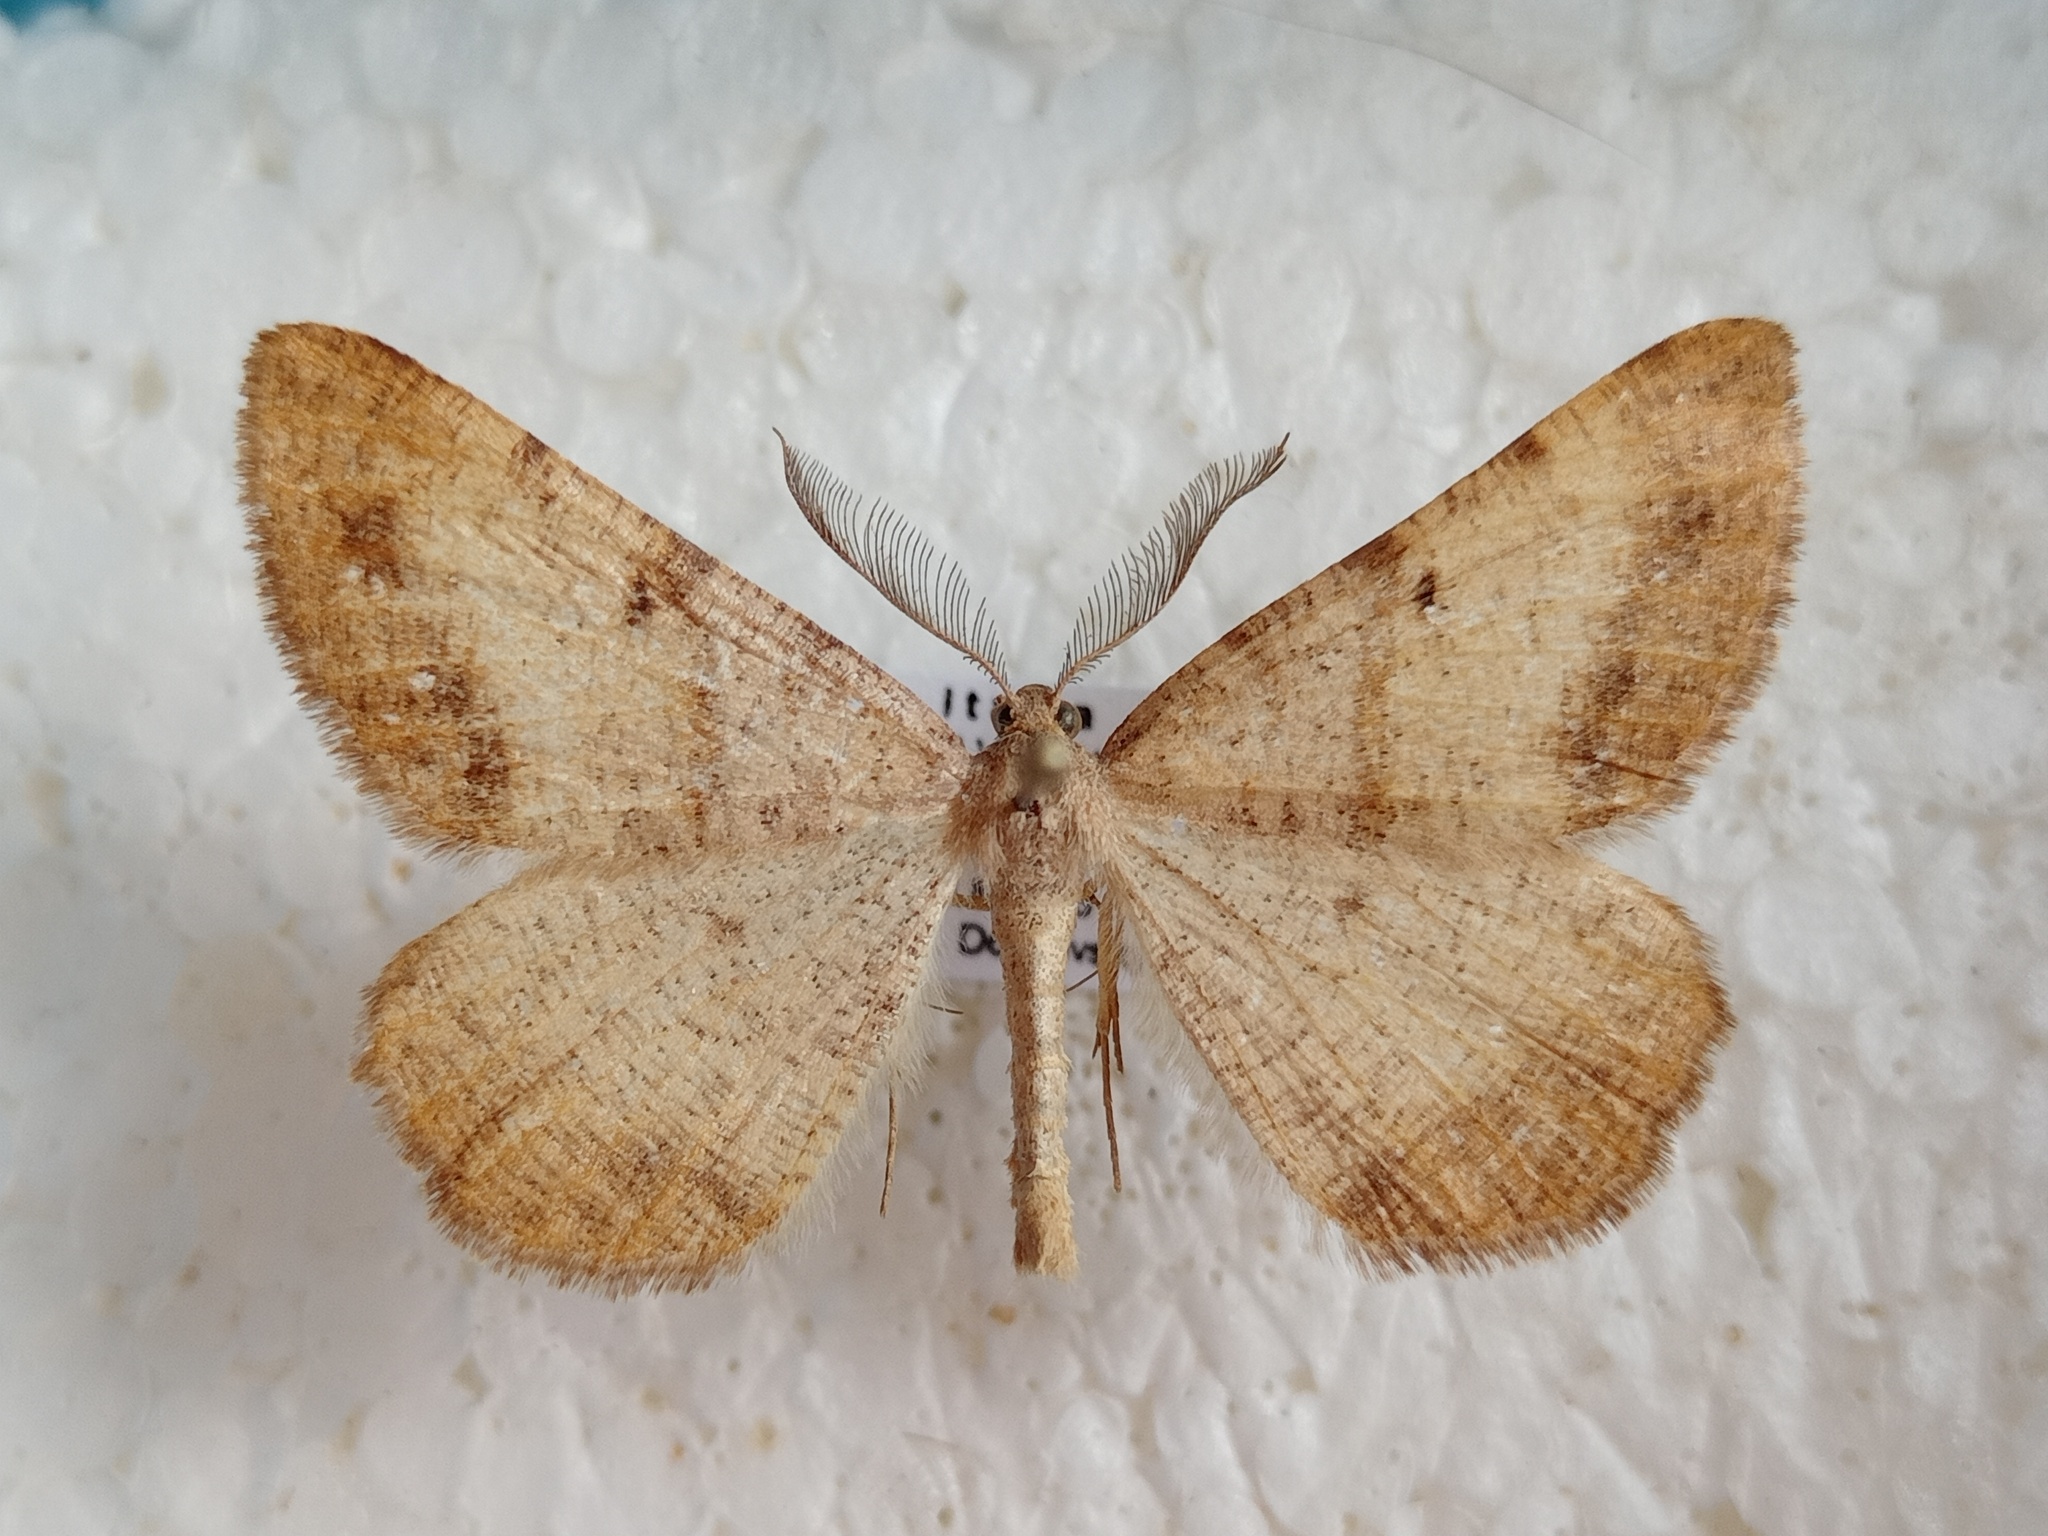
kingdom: Animalia
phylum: Arthropoda
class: Insecta
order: Lepidoptera
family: Geometridae
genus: Selidosema
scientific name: Selidosema plumaria
